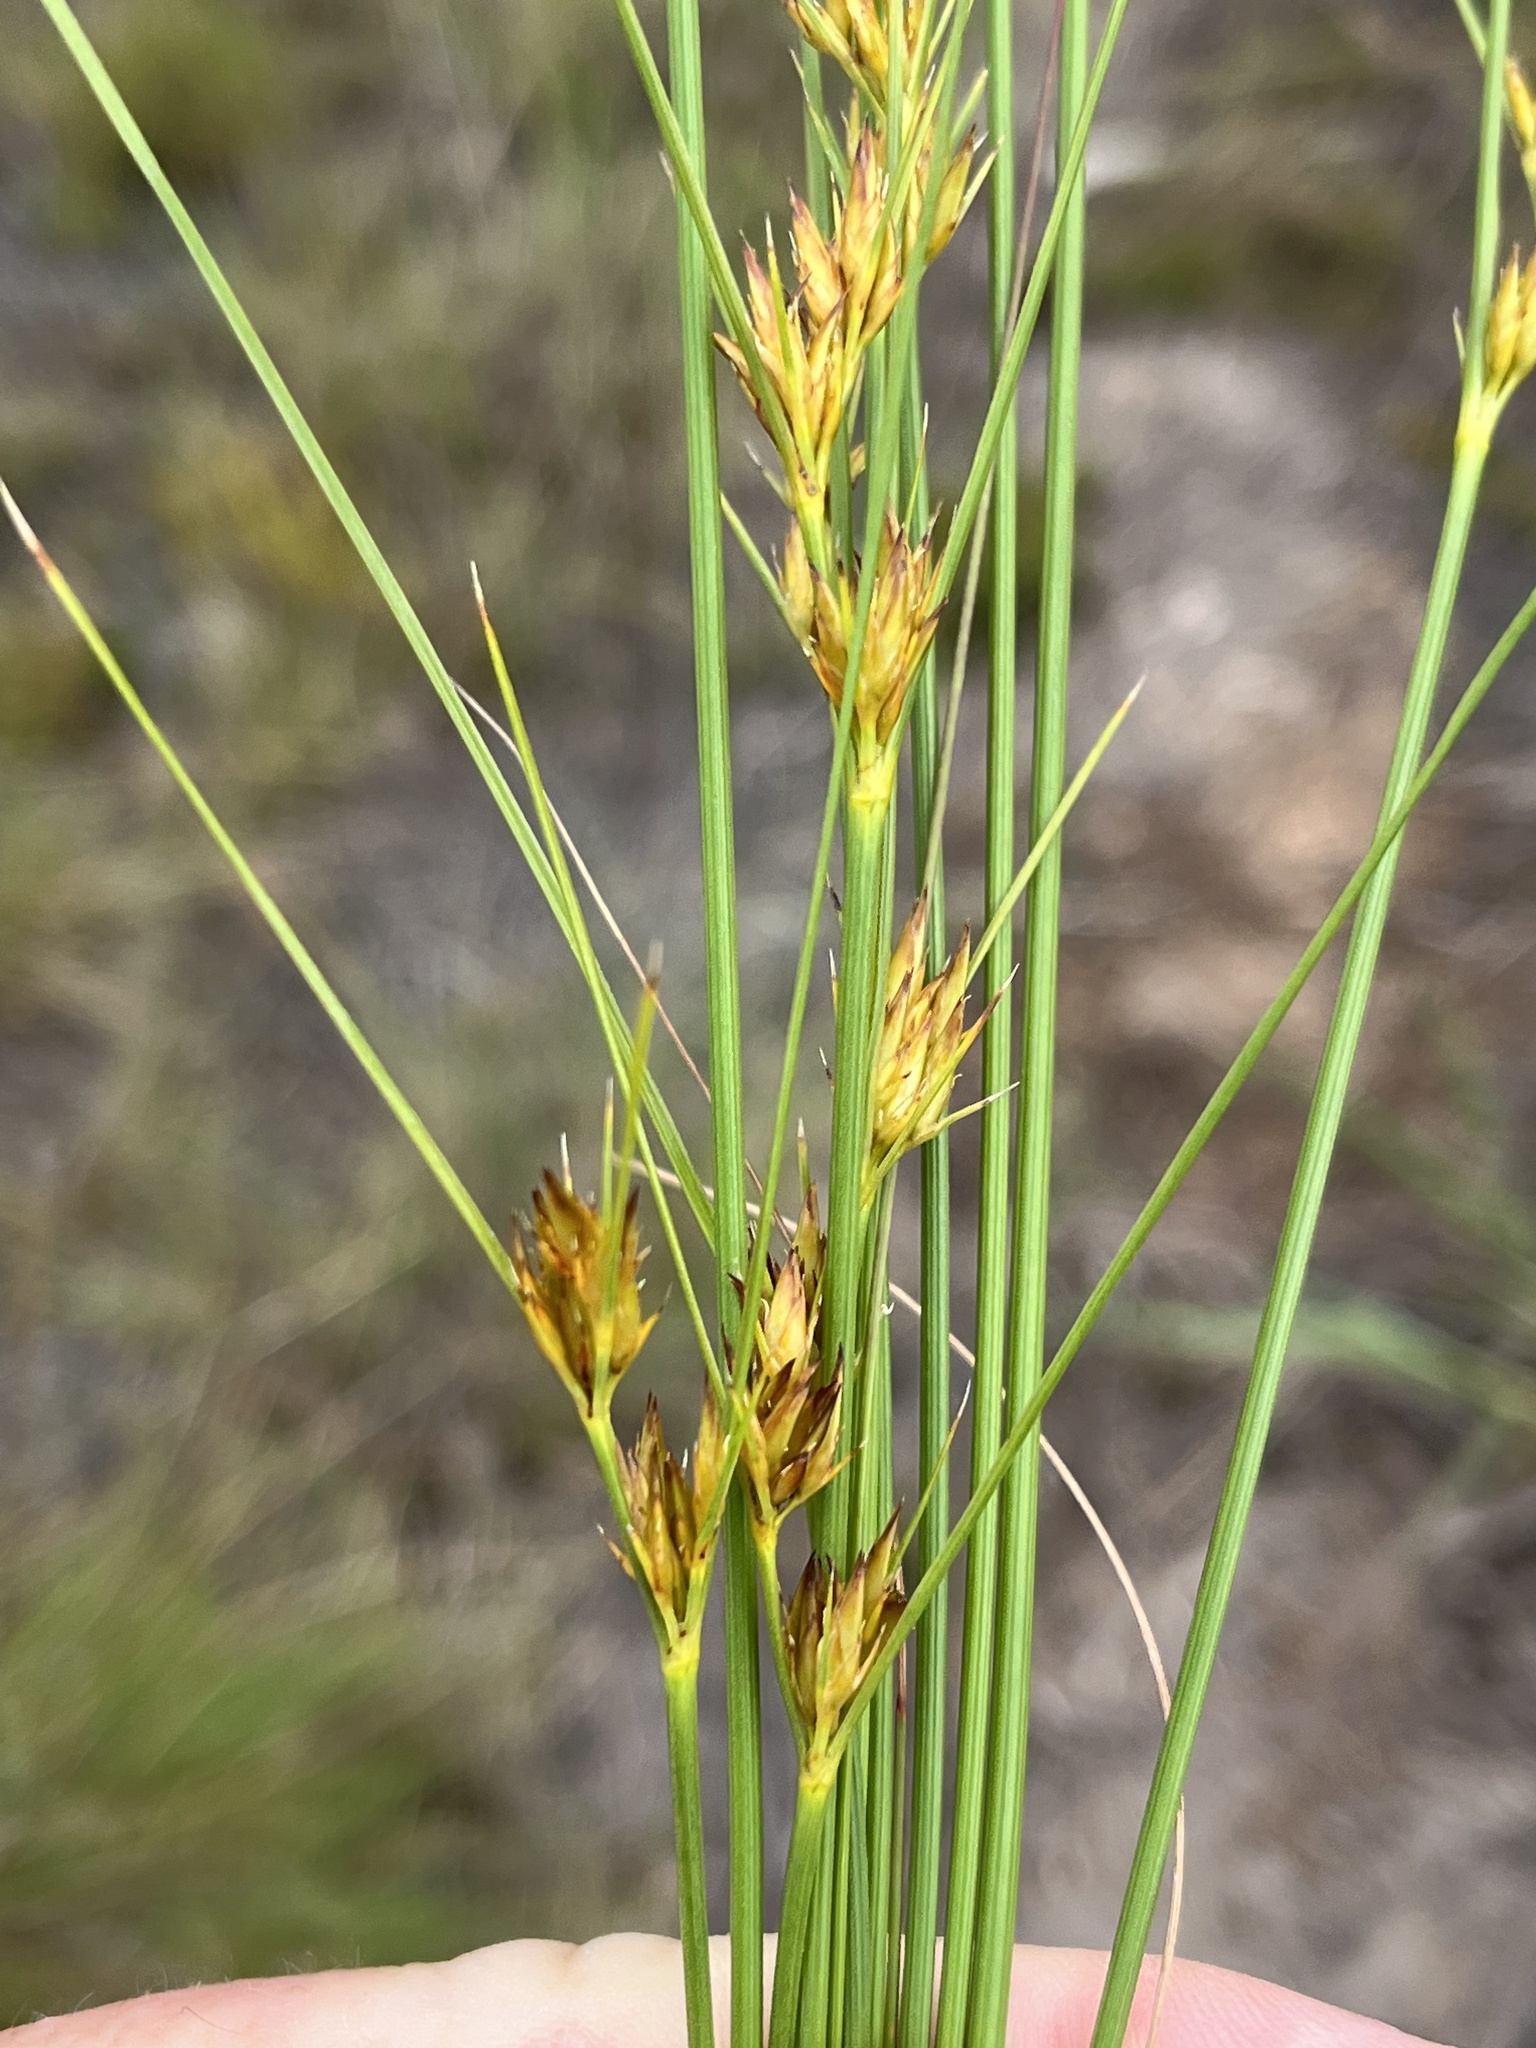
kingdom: Plantae
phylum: Tracheophyta
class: Liliopsida
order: Poales
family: Cyperaceae
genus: Schoenus
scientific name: Schoenus comparoides
